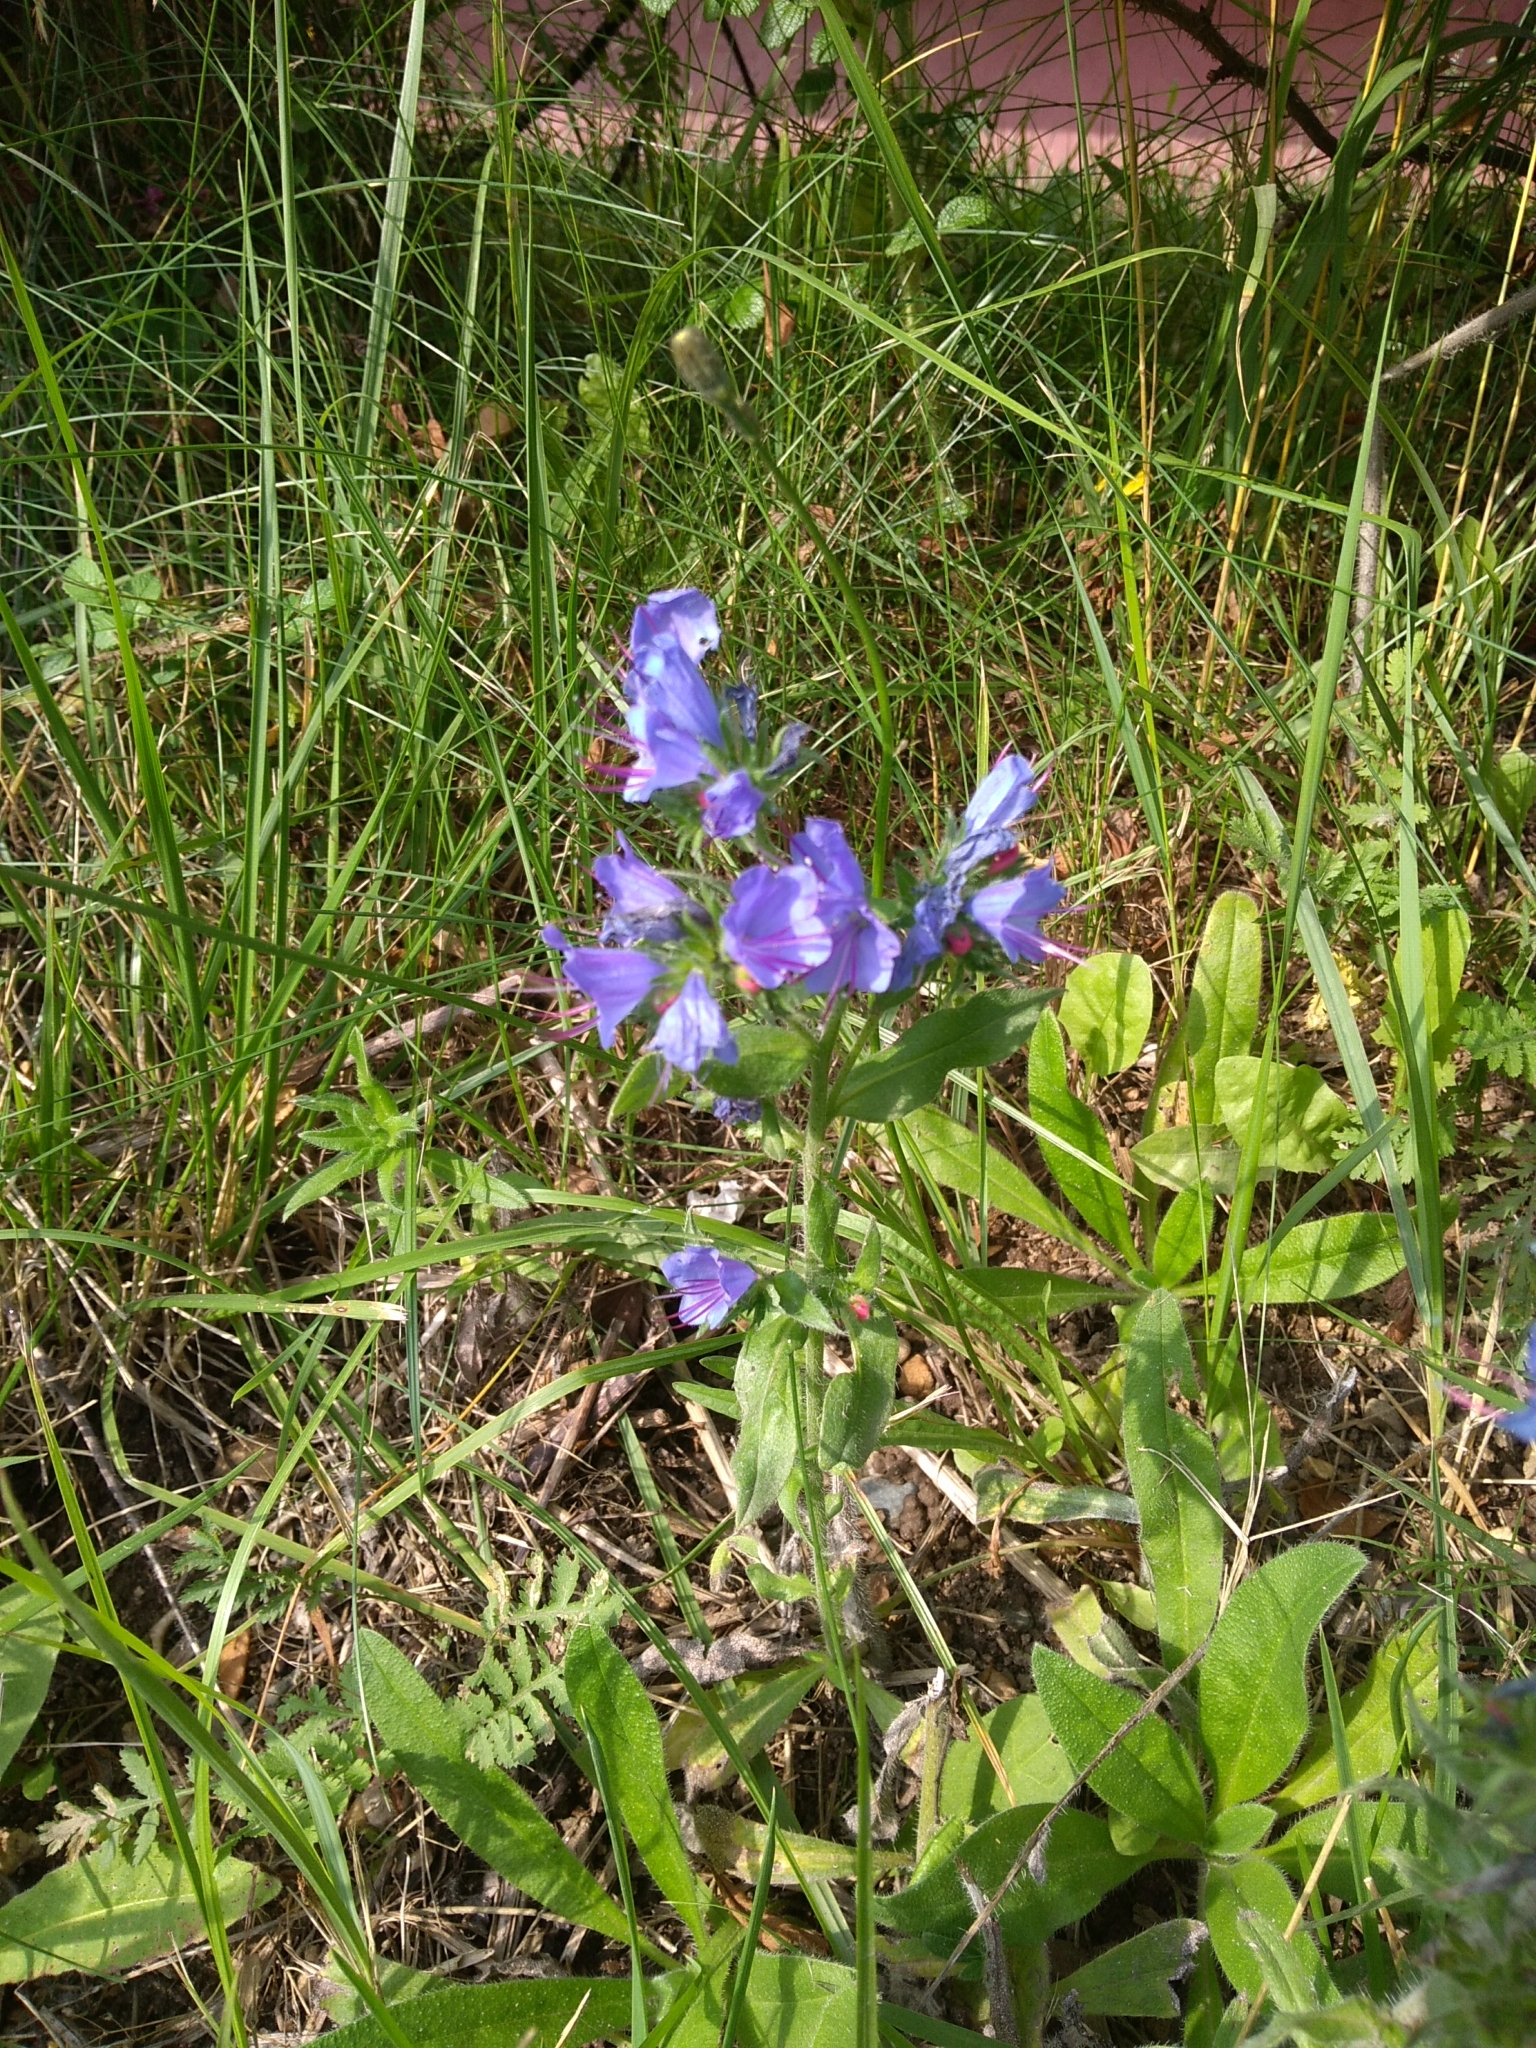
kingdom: Plantae
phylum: Tracheophyta
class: Magnoliopsida
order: Boraginales
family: Boraginaceae
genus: Echium
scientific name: Echium vulgare
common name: Common viper's bugloss
